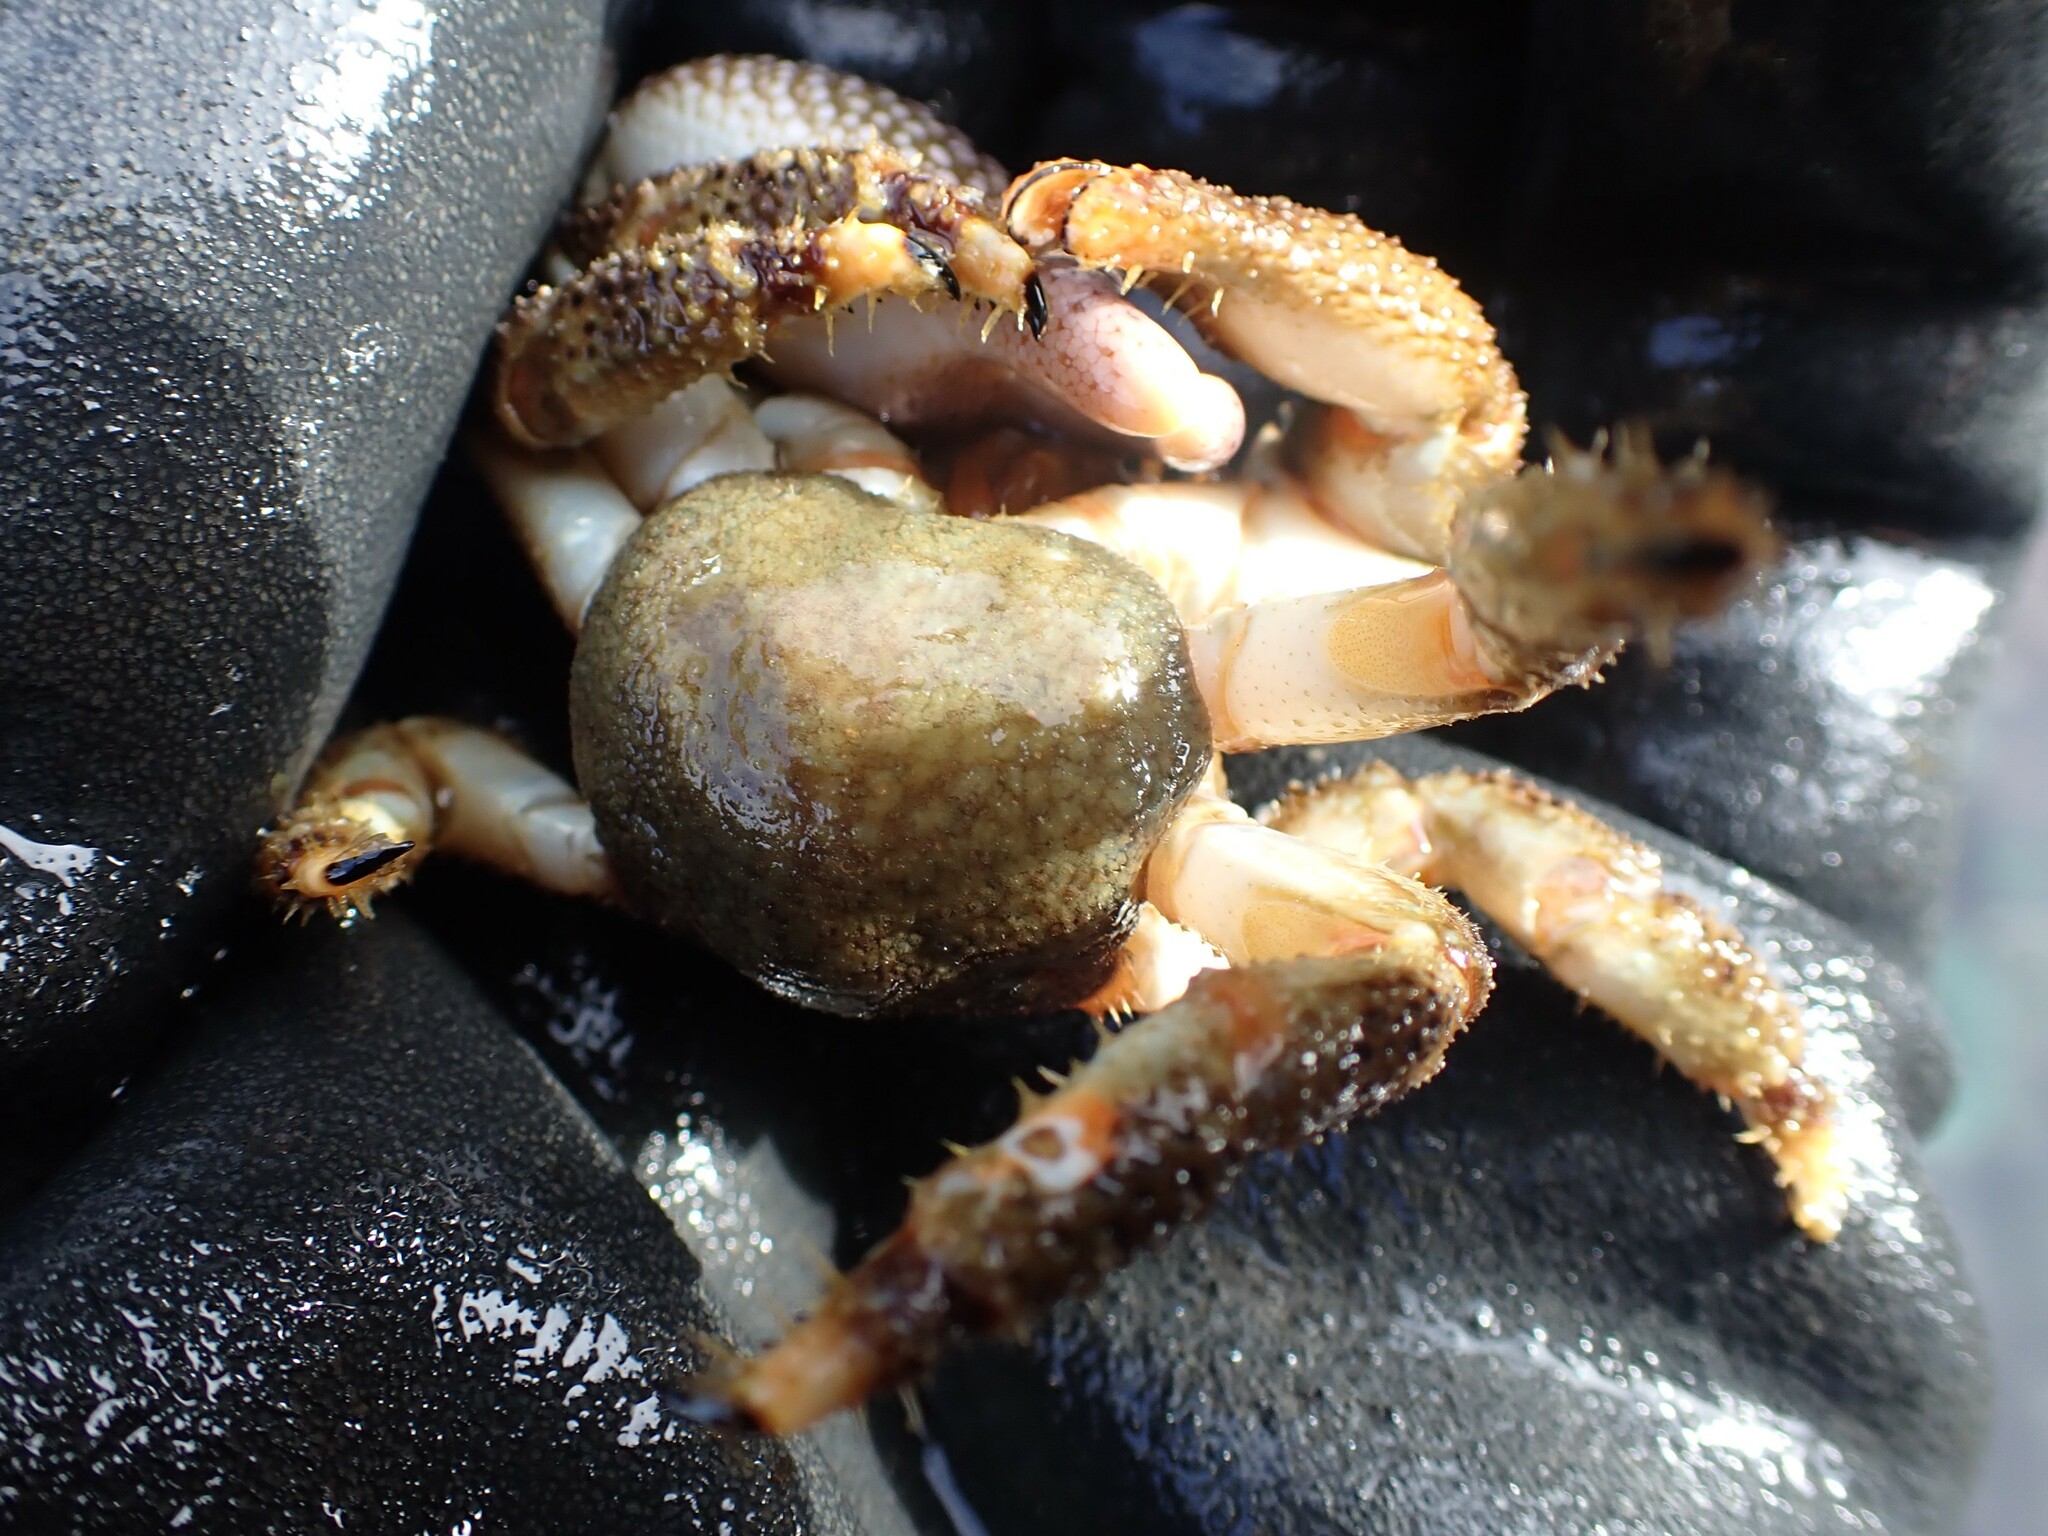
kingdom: Animalia
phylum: Arthropoda
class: Malacostraca
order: Decapoda
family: Hapalogastridae
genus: Oedignathus
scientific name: Oedignathus inermis
